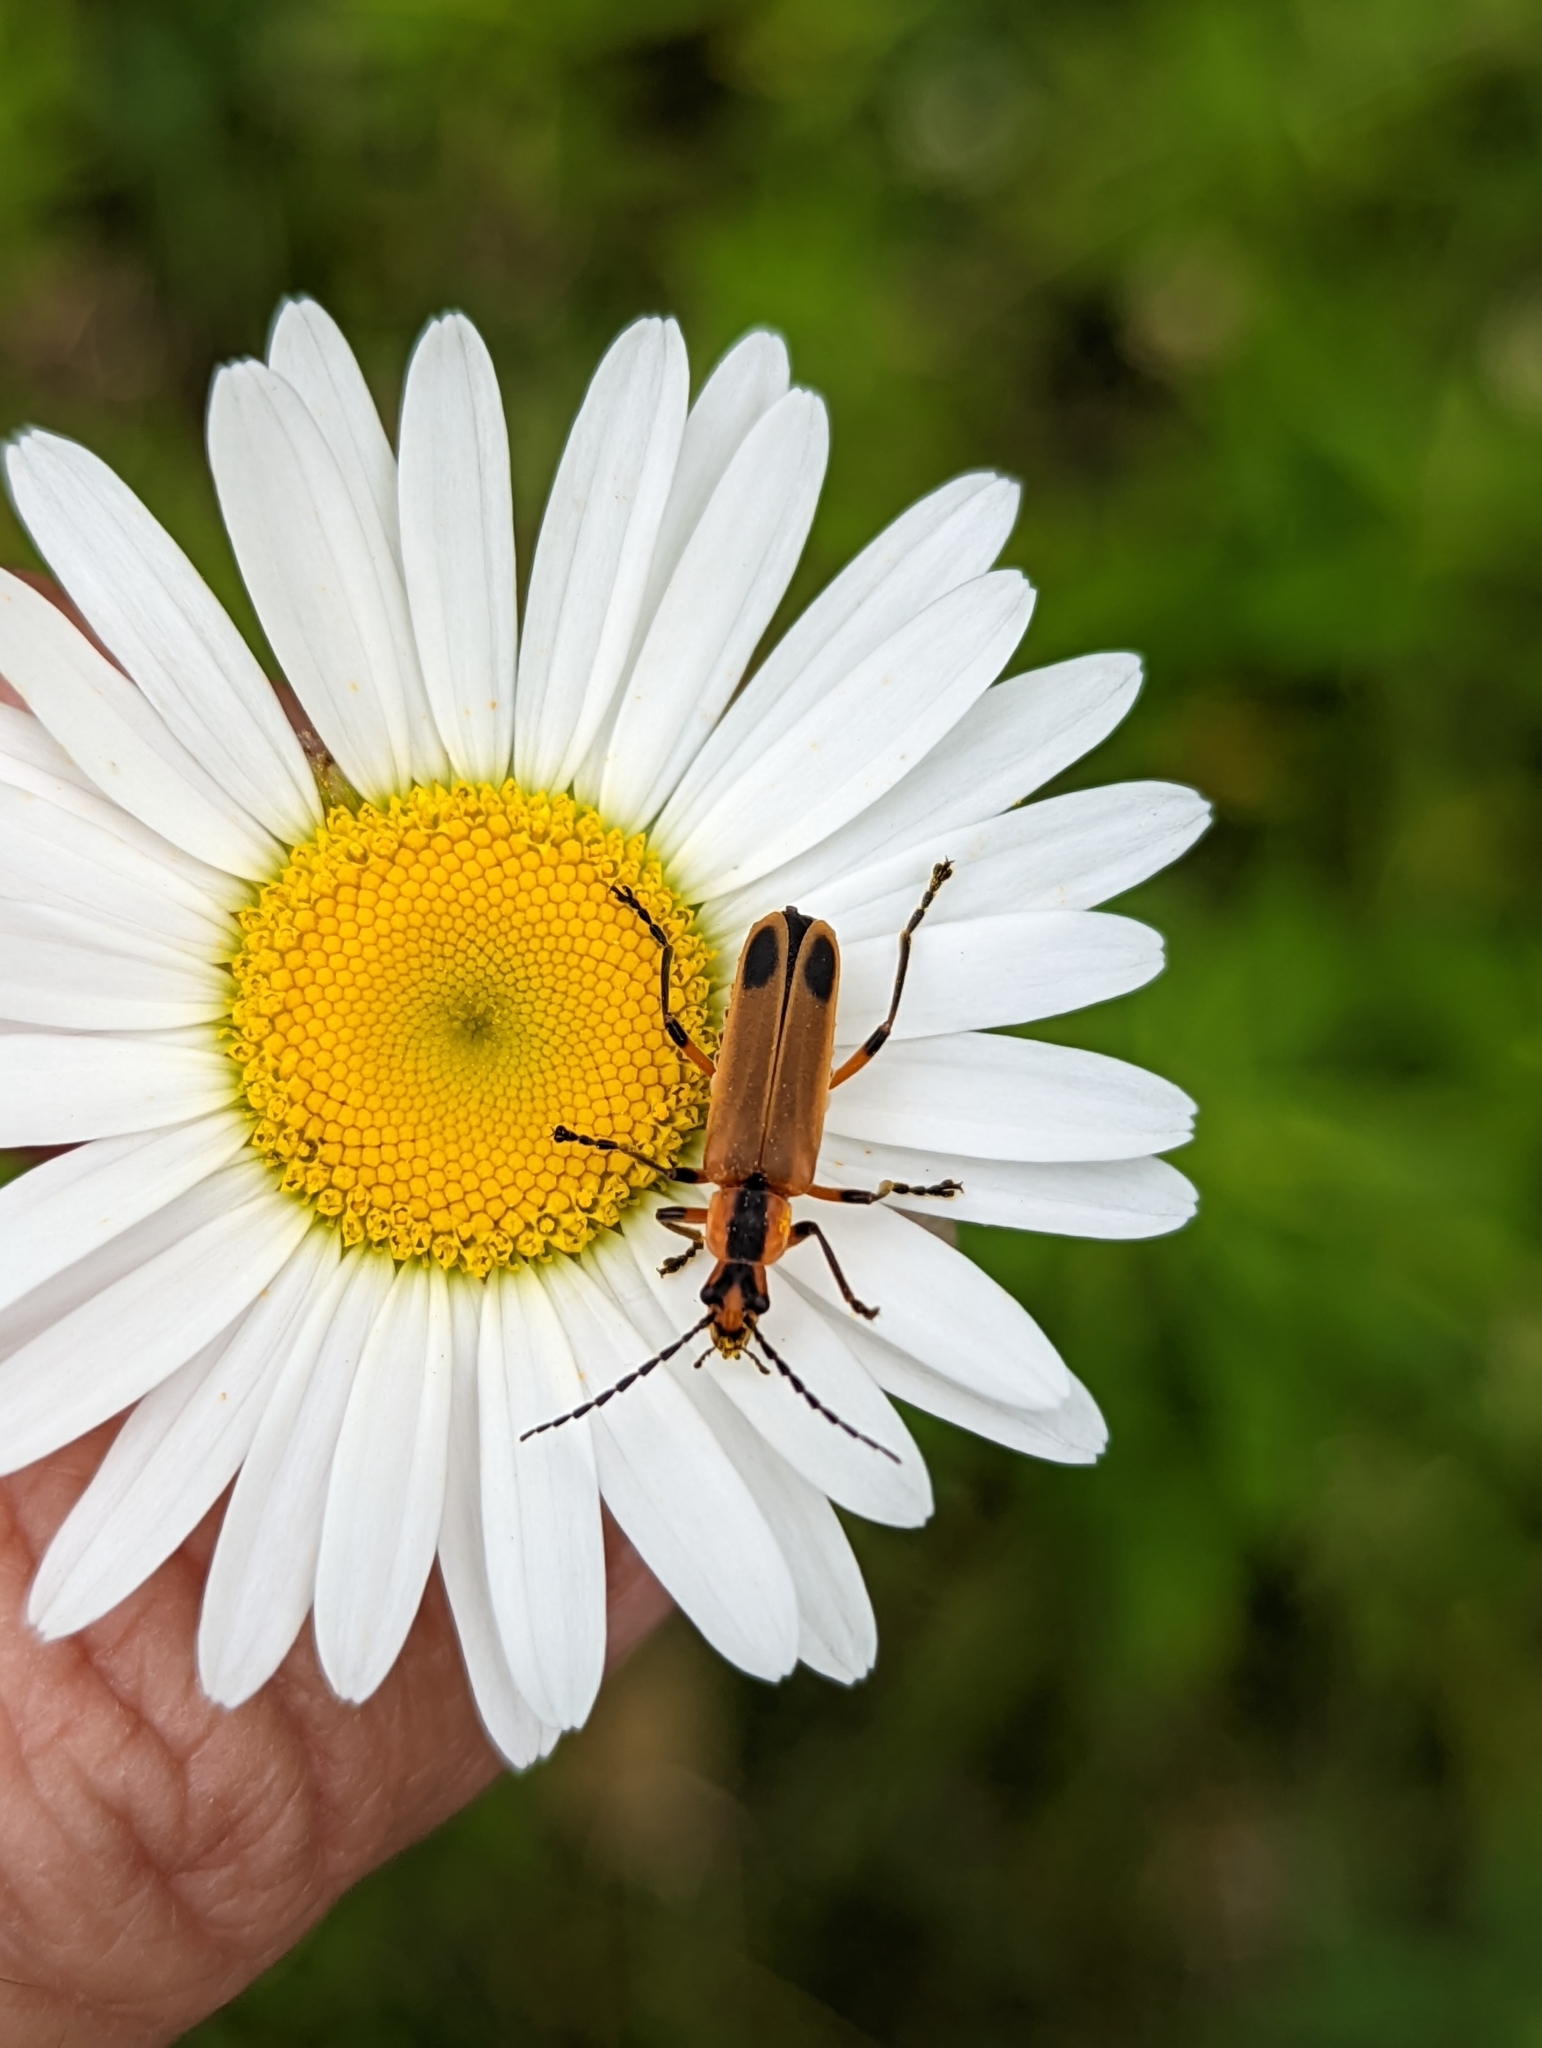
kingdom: Animalia
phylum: Arthropoda
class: Insecta
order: Coleoptera
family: Cantharidae
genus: Chauliognathus
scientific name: Chauliognathus marginatus
